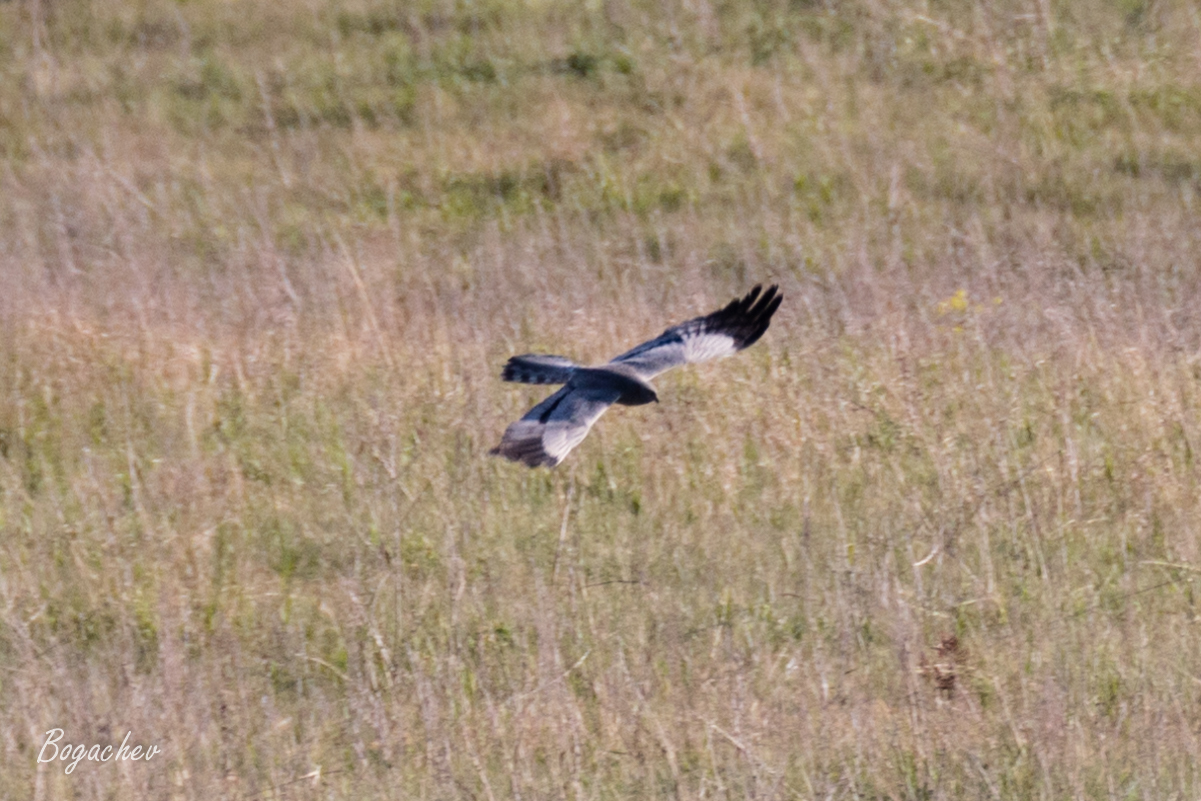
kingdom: Animalia
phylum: Chordata
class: Aves
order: Accipitriformes
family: Accipitridae
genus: Circus
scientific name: Circus pygargus
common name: Montagu's harrier
